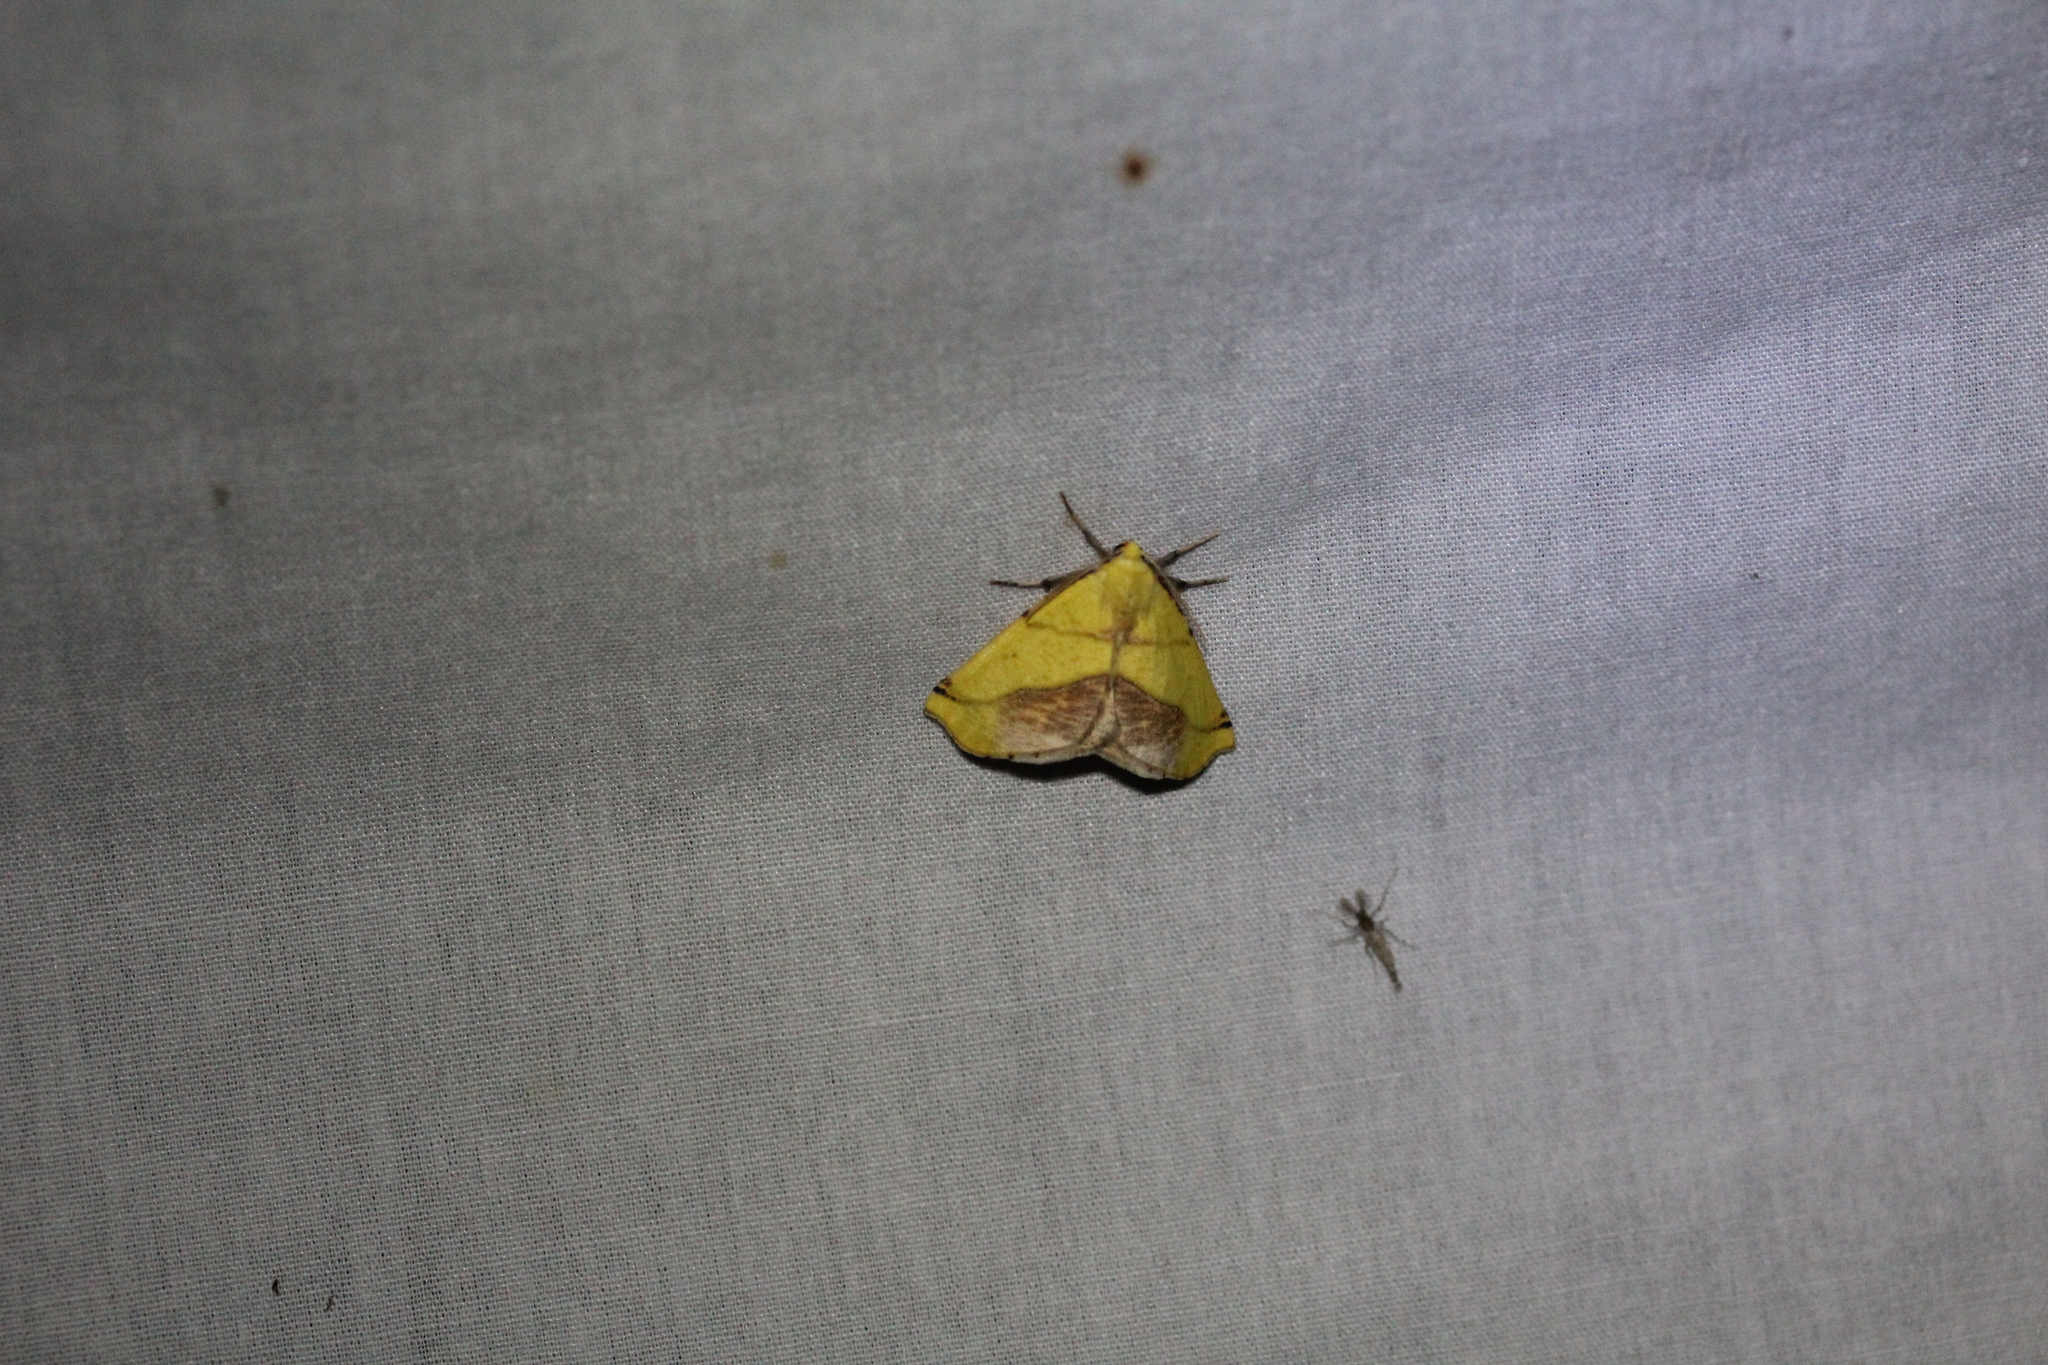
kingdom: Animalia
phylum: Arthropoda
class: Insecta
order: Lepidoptera
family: Geometridae
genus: Sicya
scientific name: Sicya macularia
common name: Sharp-lined yellow
